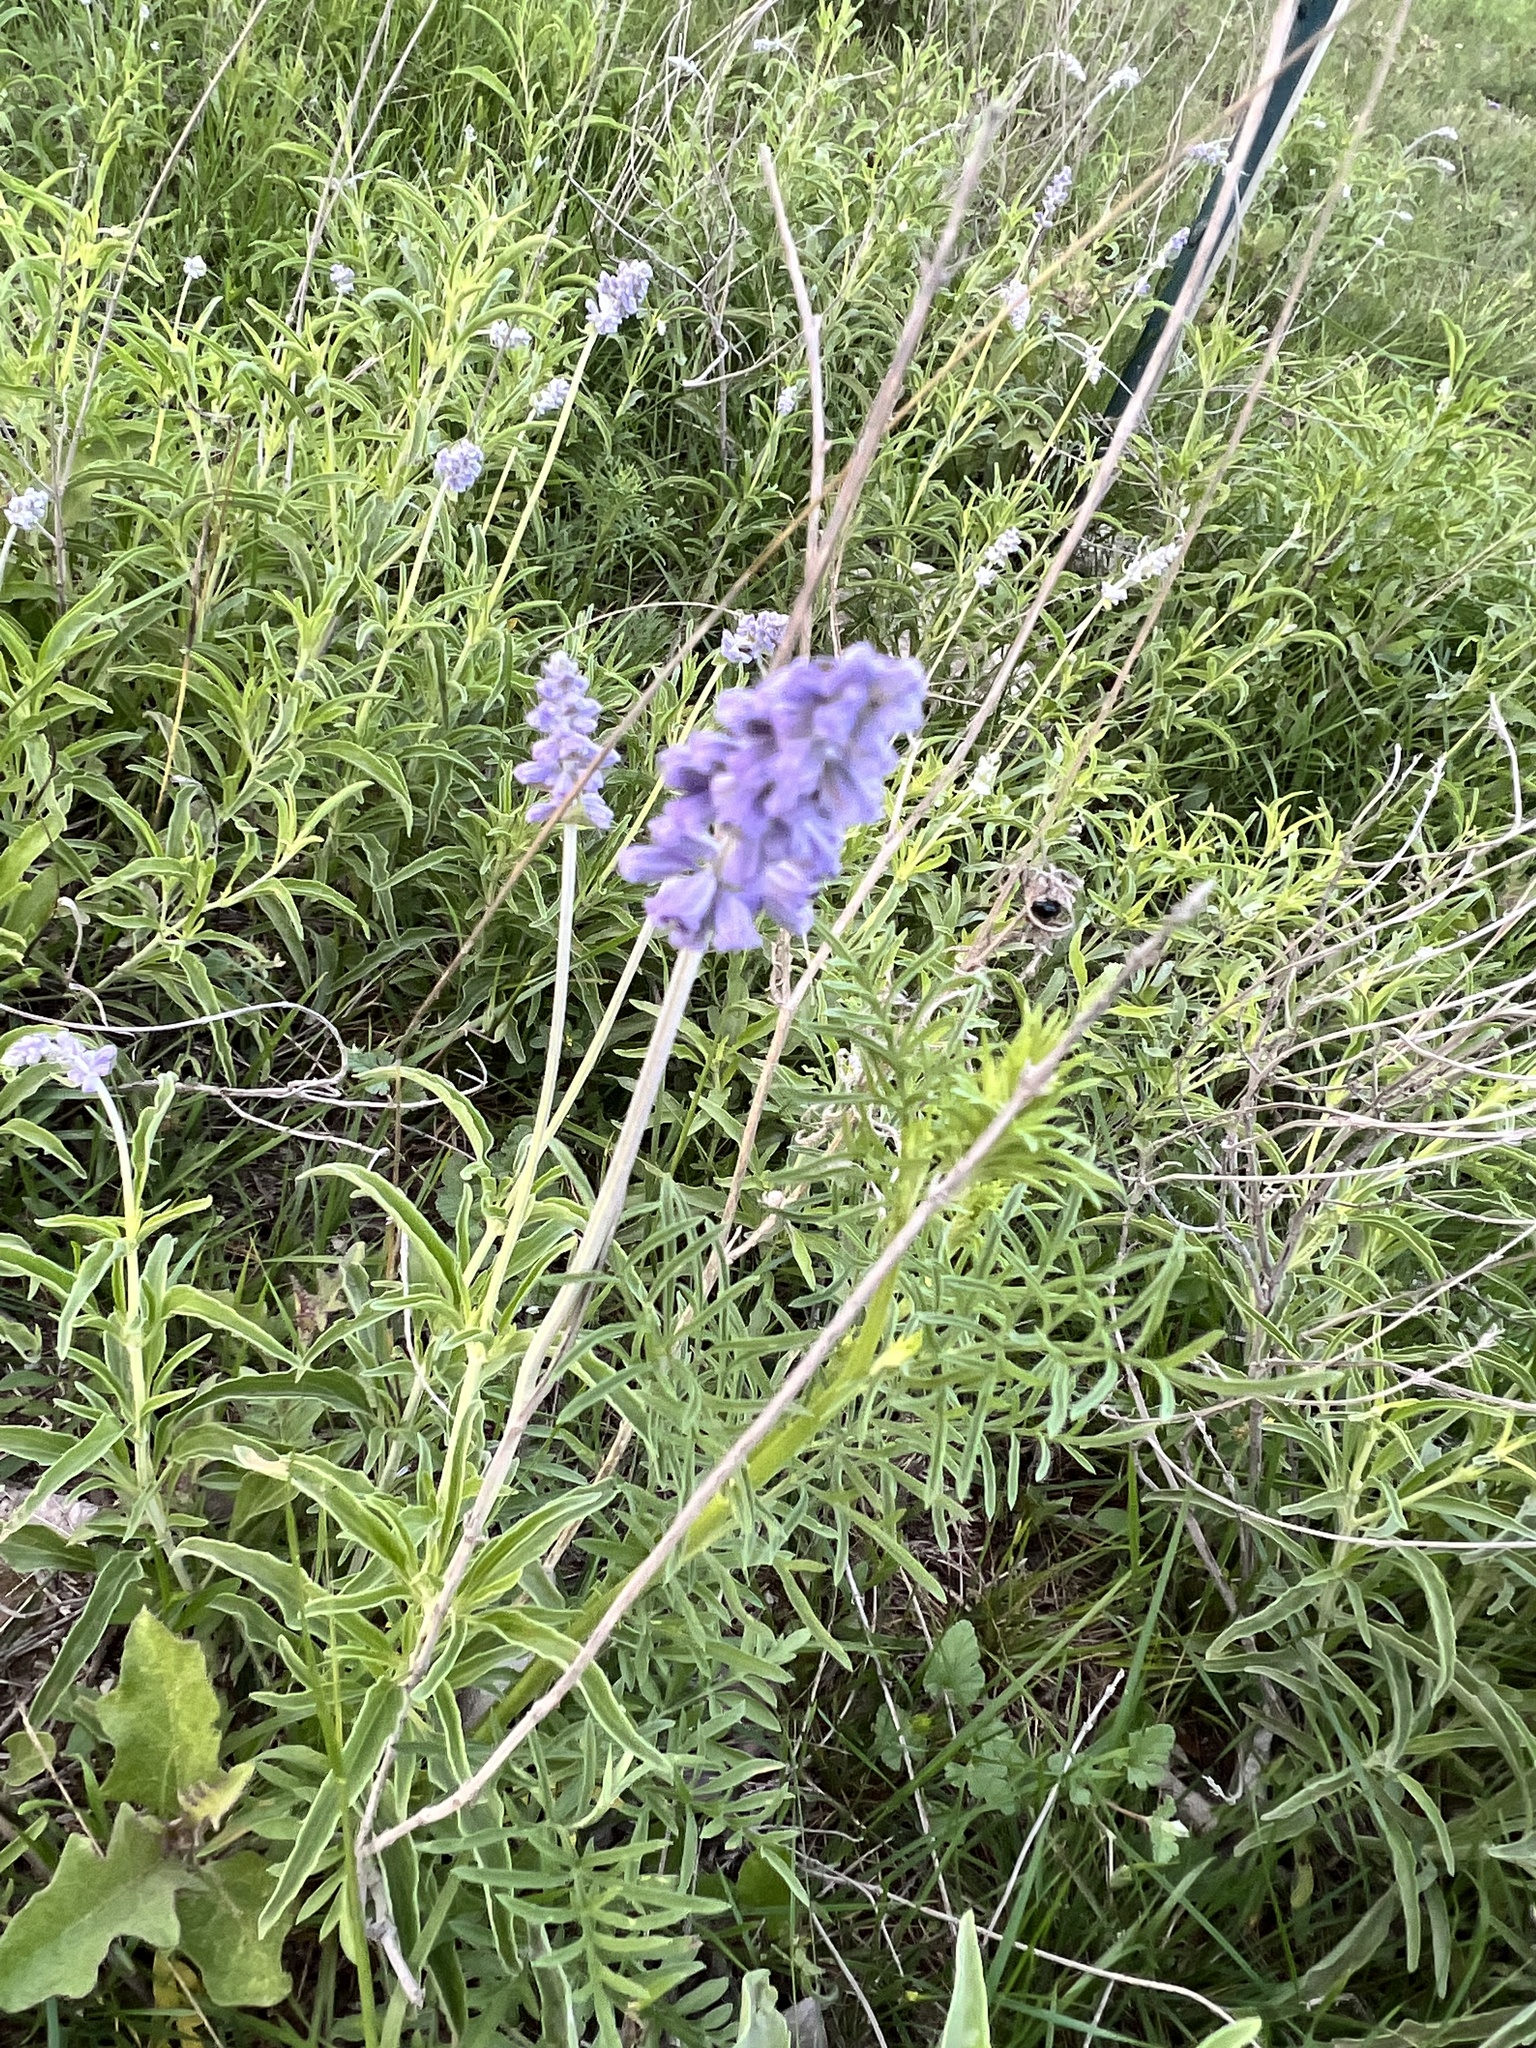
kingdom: Plantae
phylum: Tracheophyta
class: Magnoliopsida
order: Lamiales
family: Lamiaceae
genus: Salvia
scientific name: Salvia farinacea
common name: Mealy sage
